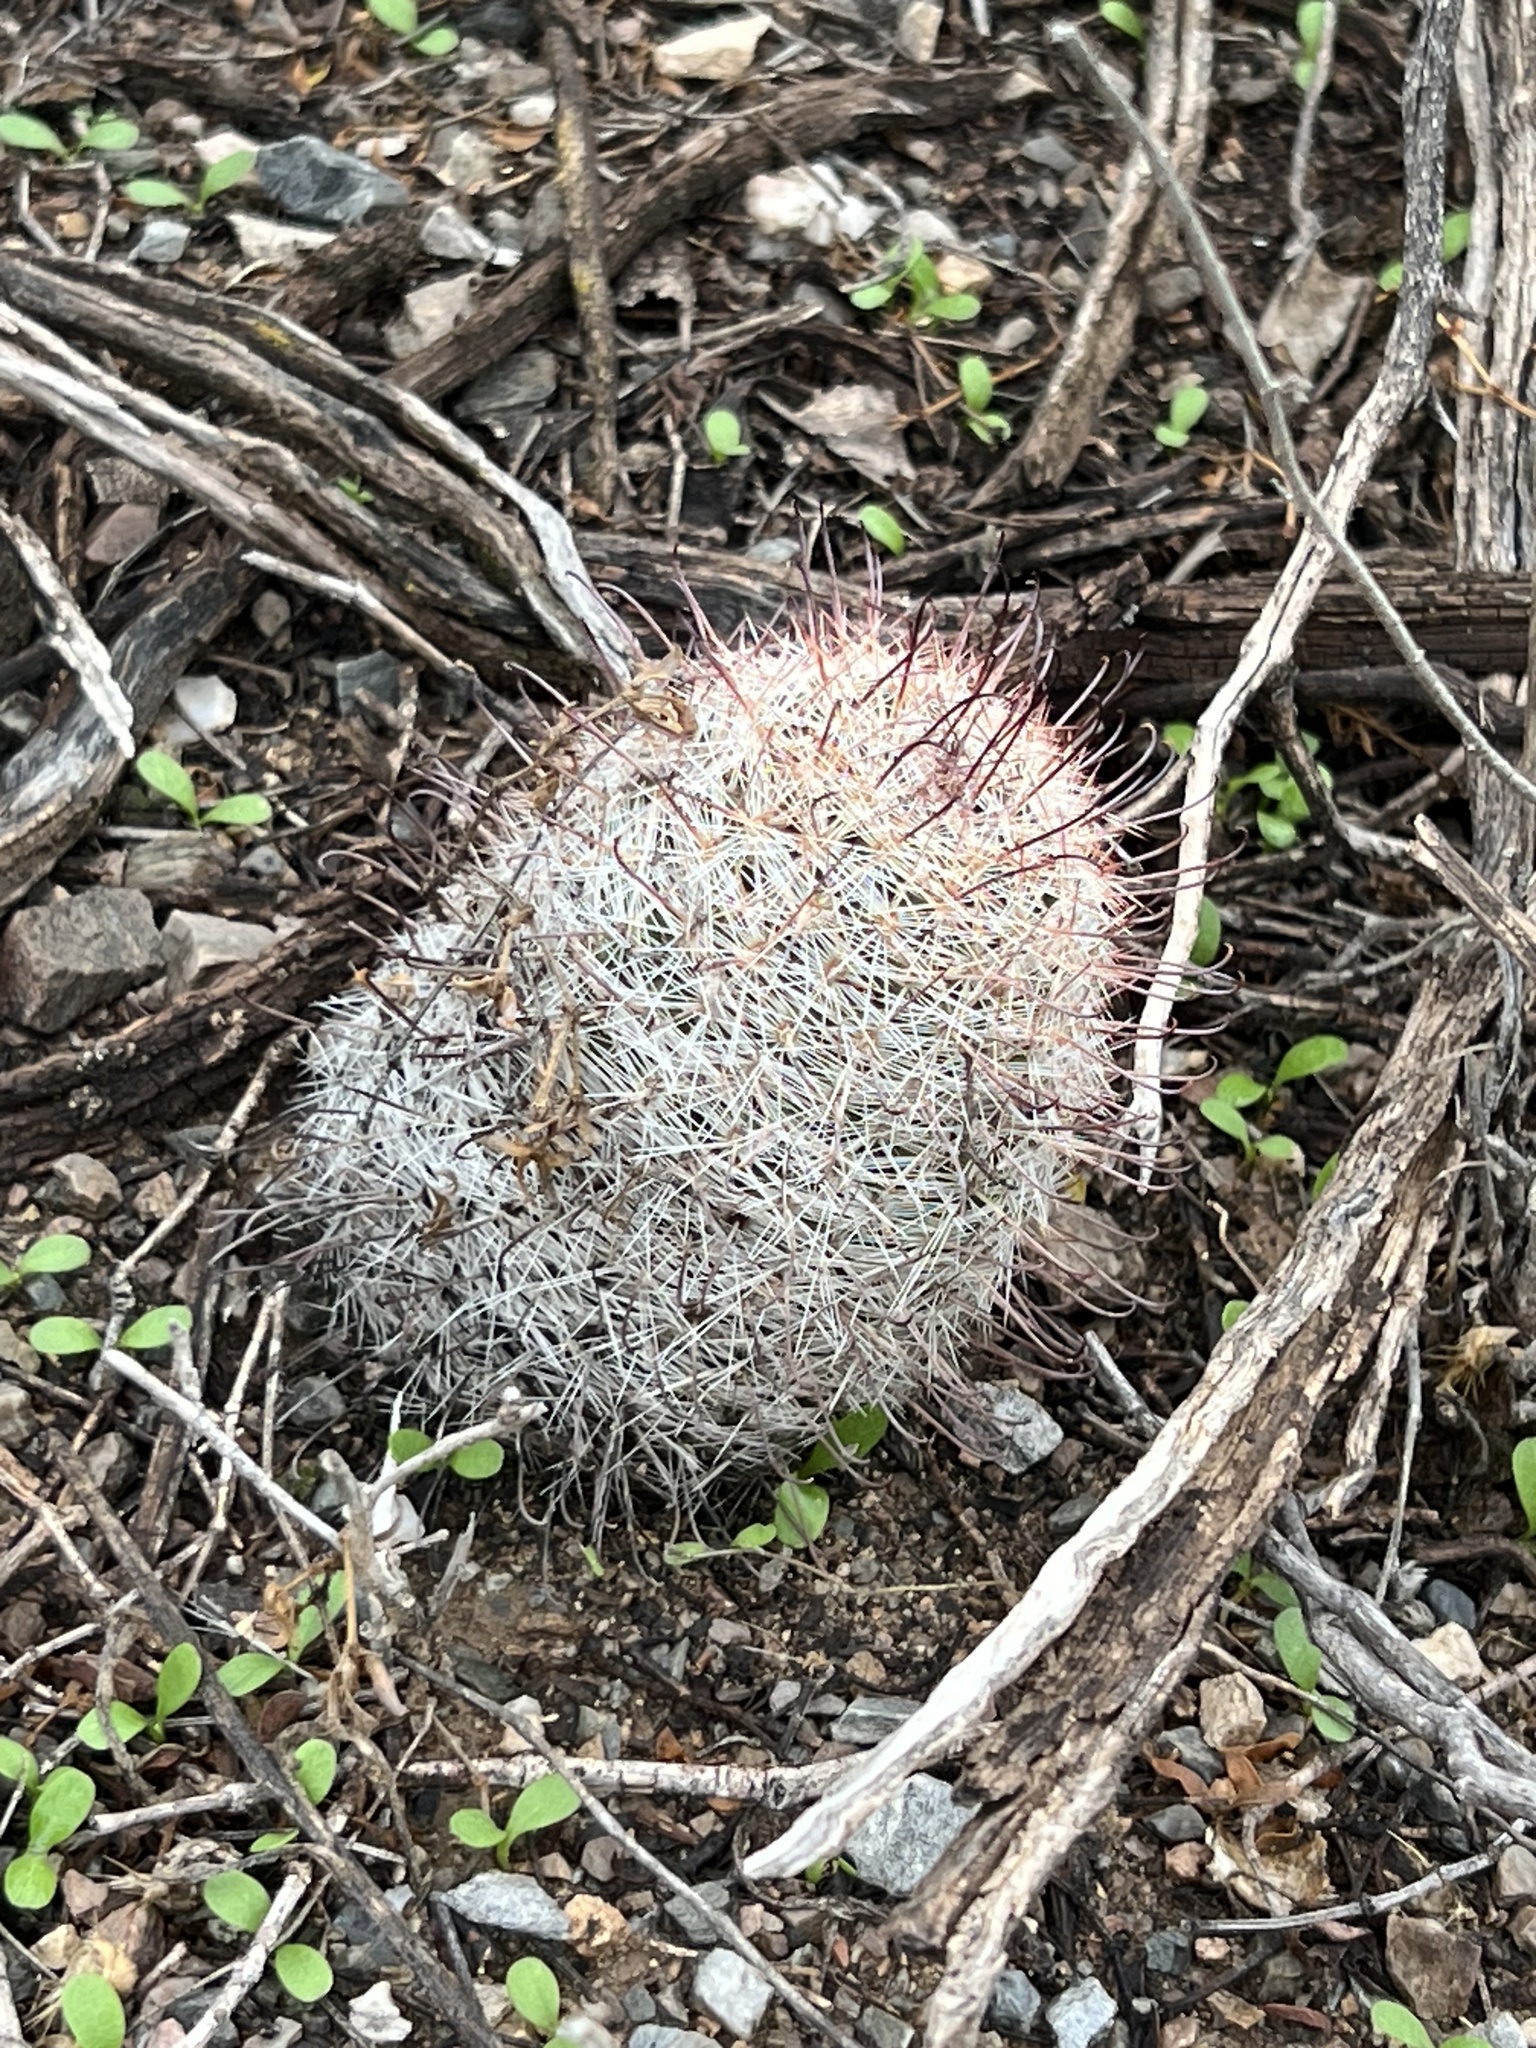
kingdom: Plantae
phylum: Tracheophyta
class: Magnoliopsida
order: Caryophyllales
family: Cactaceae
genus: Cochemiea
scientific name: Cochemiea grahamii
